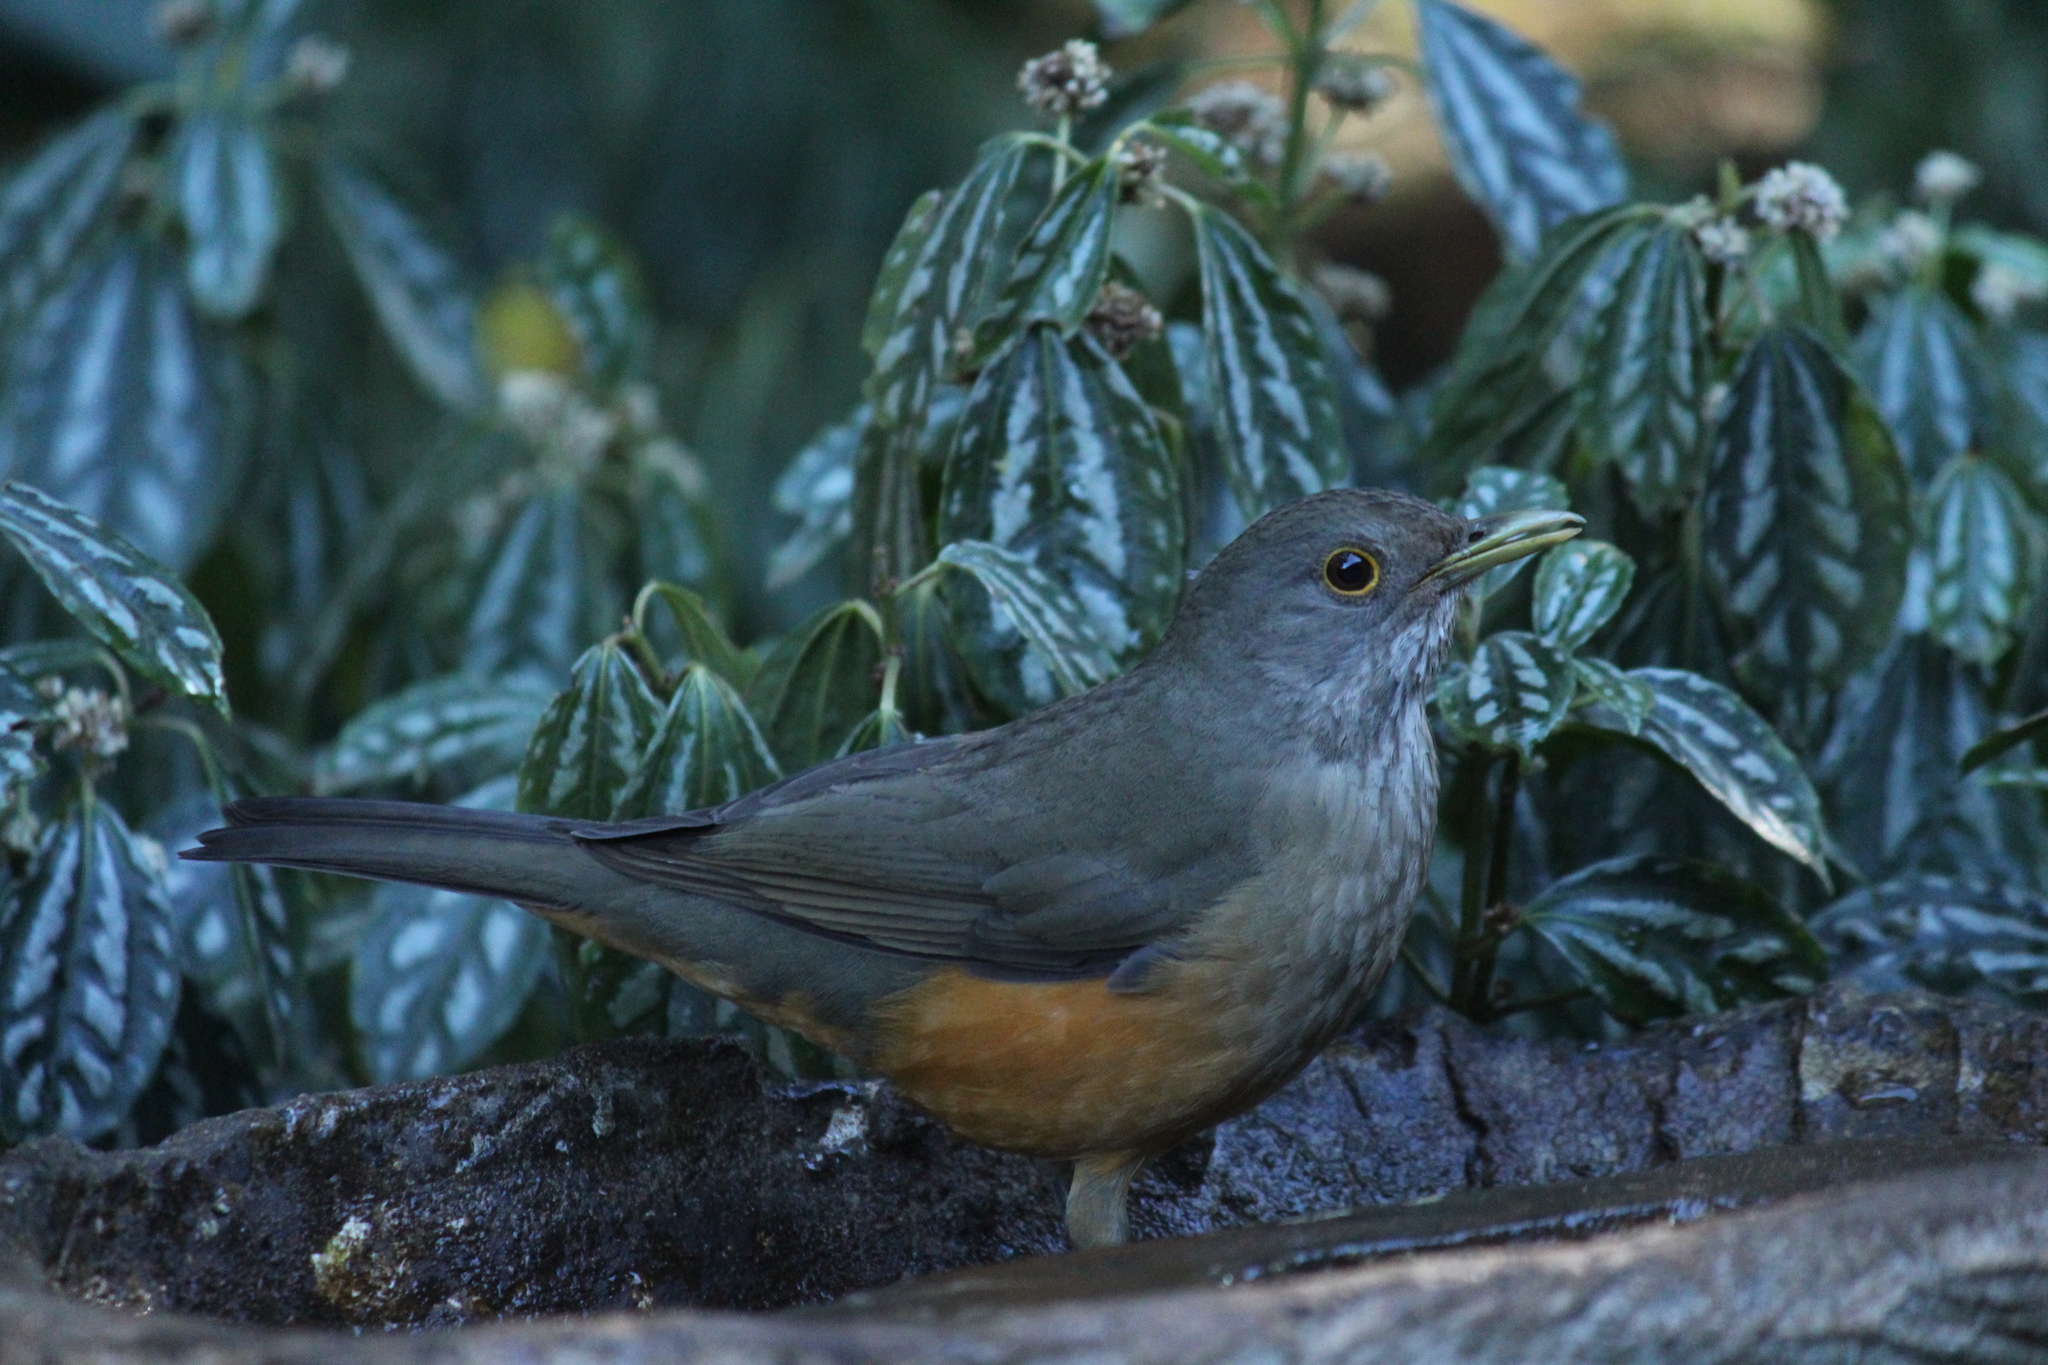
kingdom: Animalia
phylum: Chordata
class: Aves
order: Passeriformes
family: Turdidae
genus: Turdus
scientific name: Turdus rufiventris
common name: Rufous-bellied thrush
